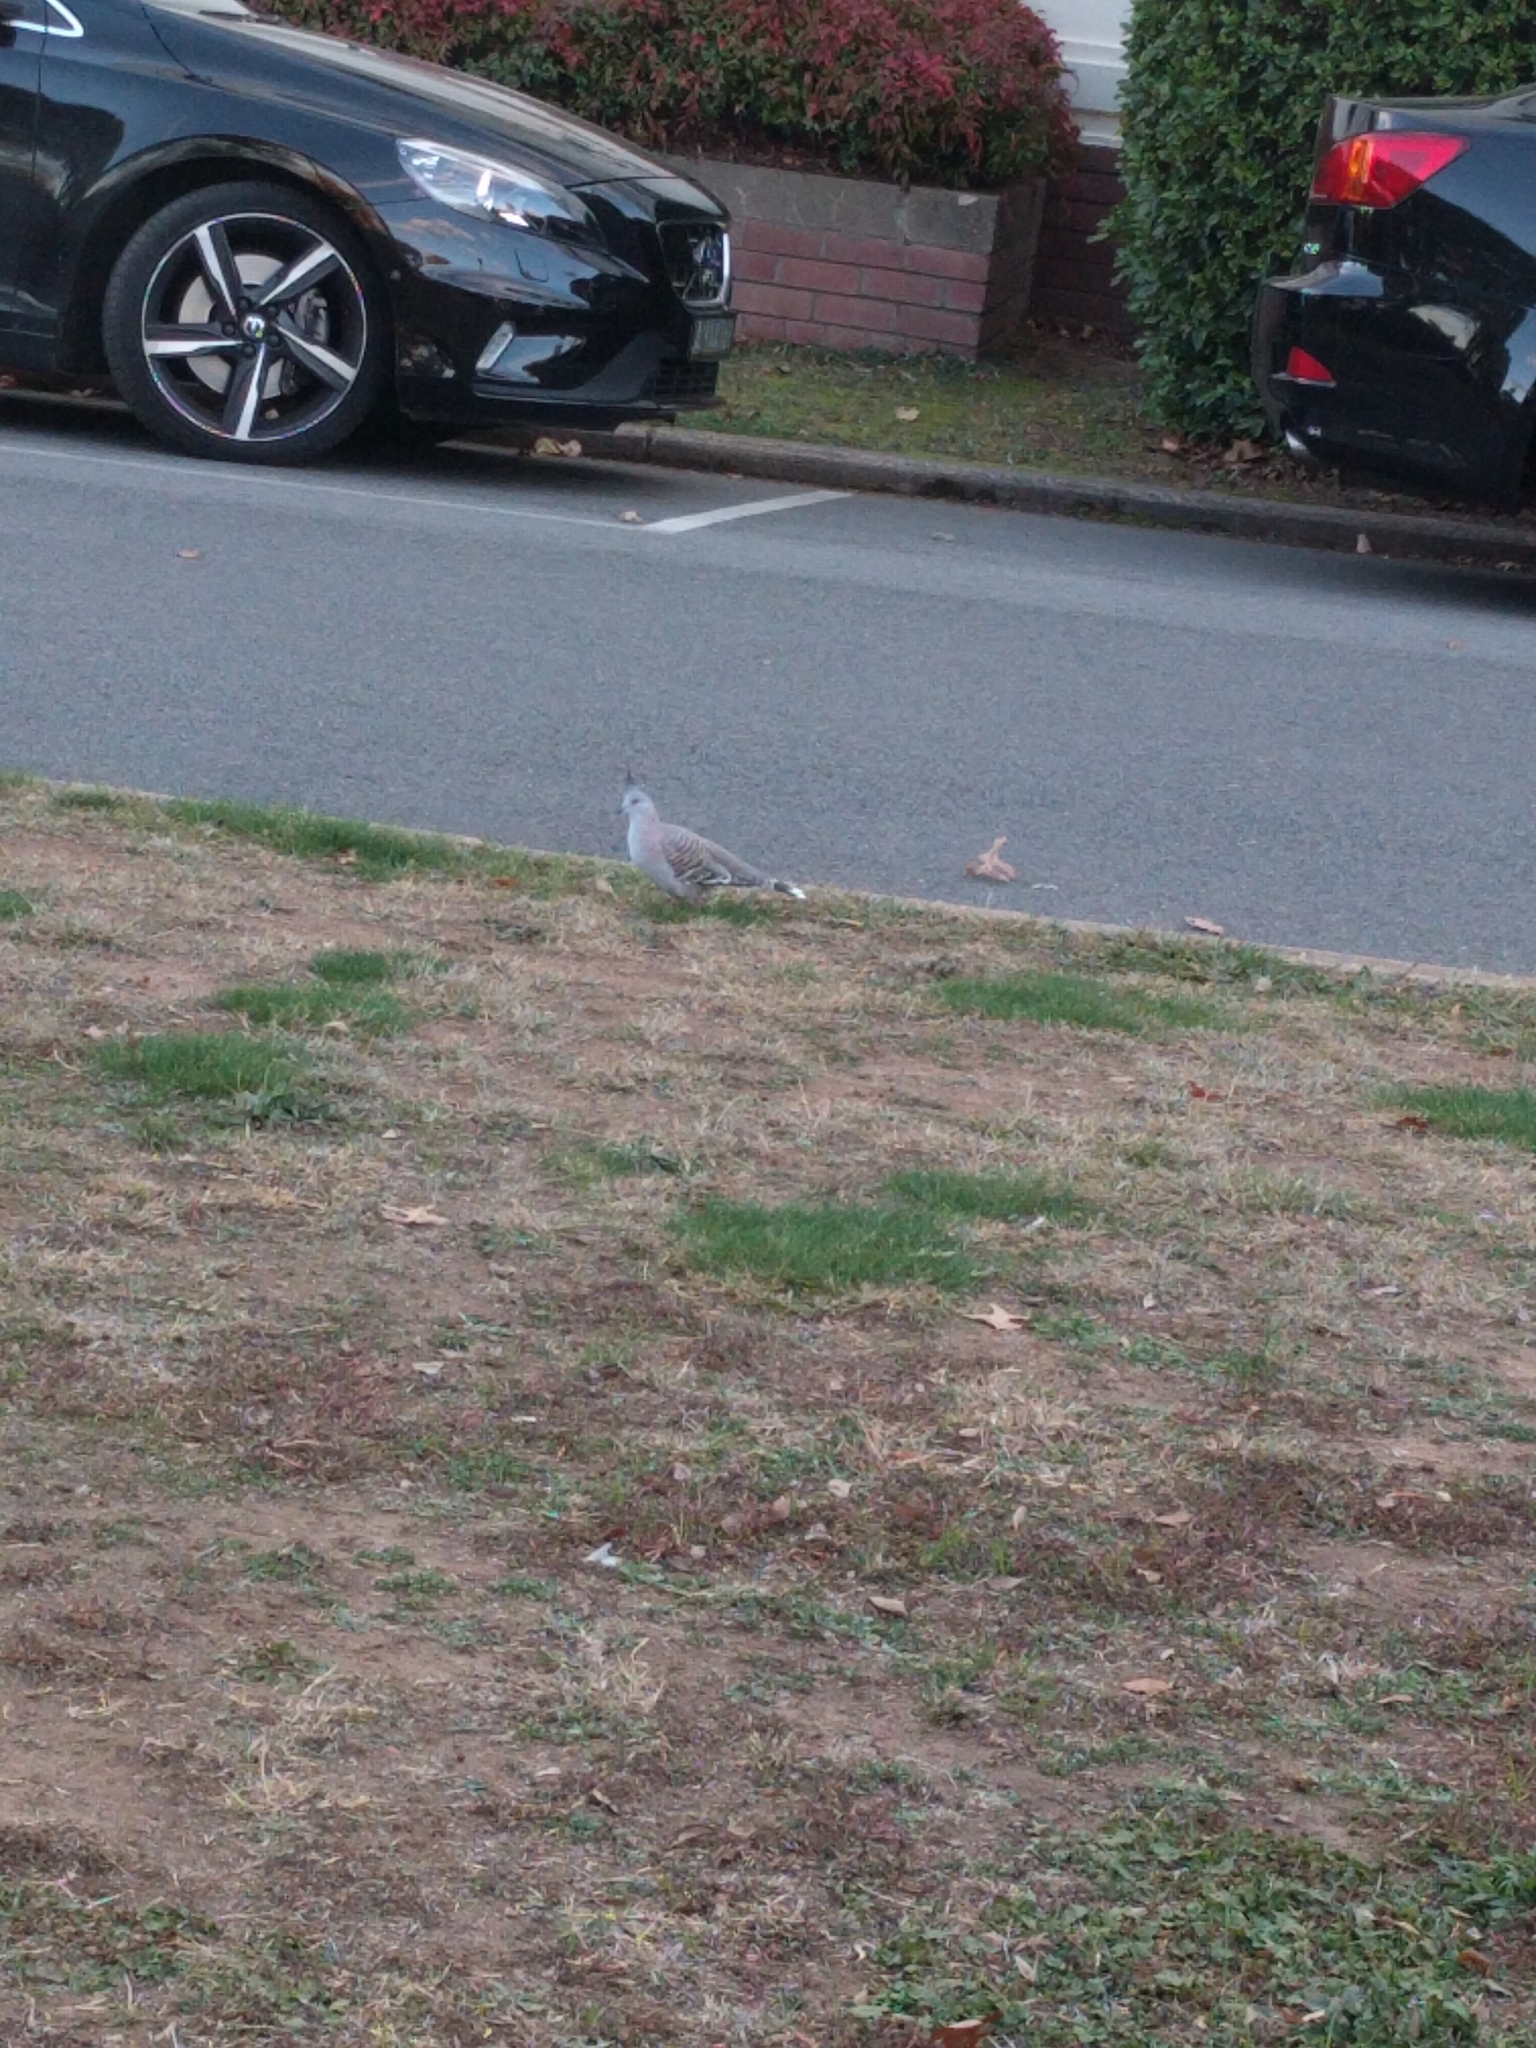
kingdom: Animalia
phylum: Chordata
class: Aves
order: Columbiformes
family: Columbidae
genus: Ocyphaps
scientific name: Ocyphaps lophotes
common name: Crested pigeon
